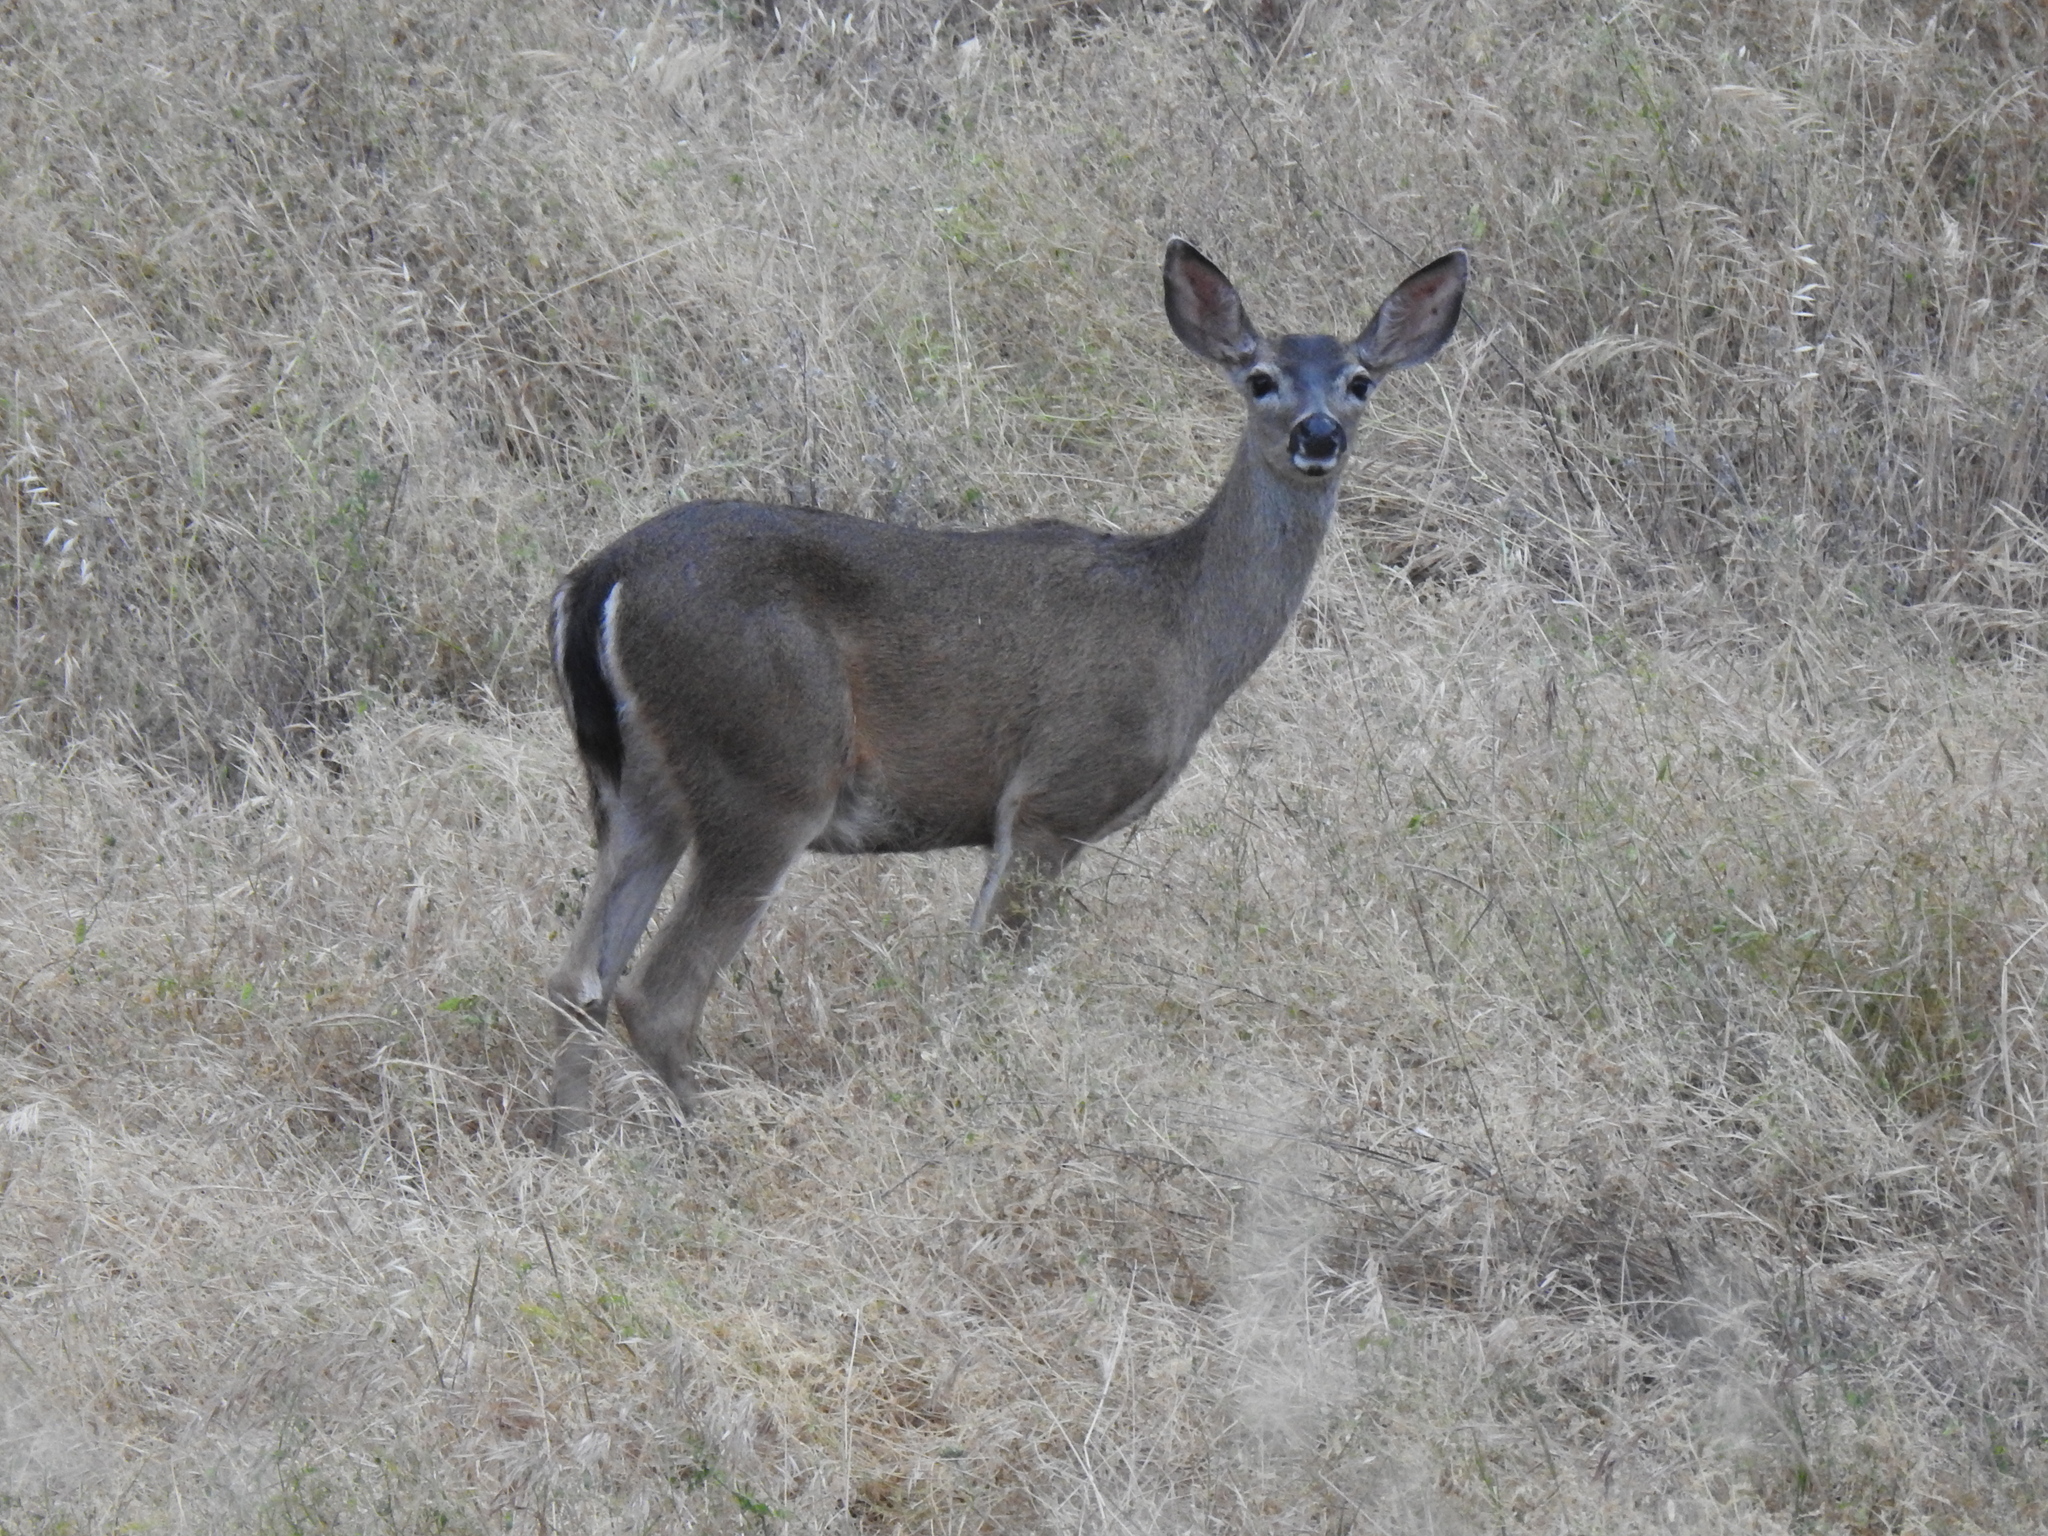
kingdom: Animalia
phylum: Chordata
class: Mammalia
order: Artiodactyla
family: Cervidae
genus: Odocoileus
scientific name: Odocoileus hemionus
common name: Mule deer
